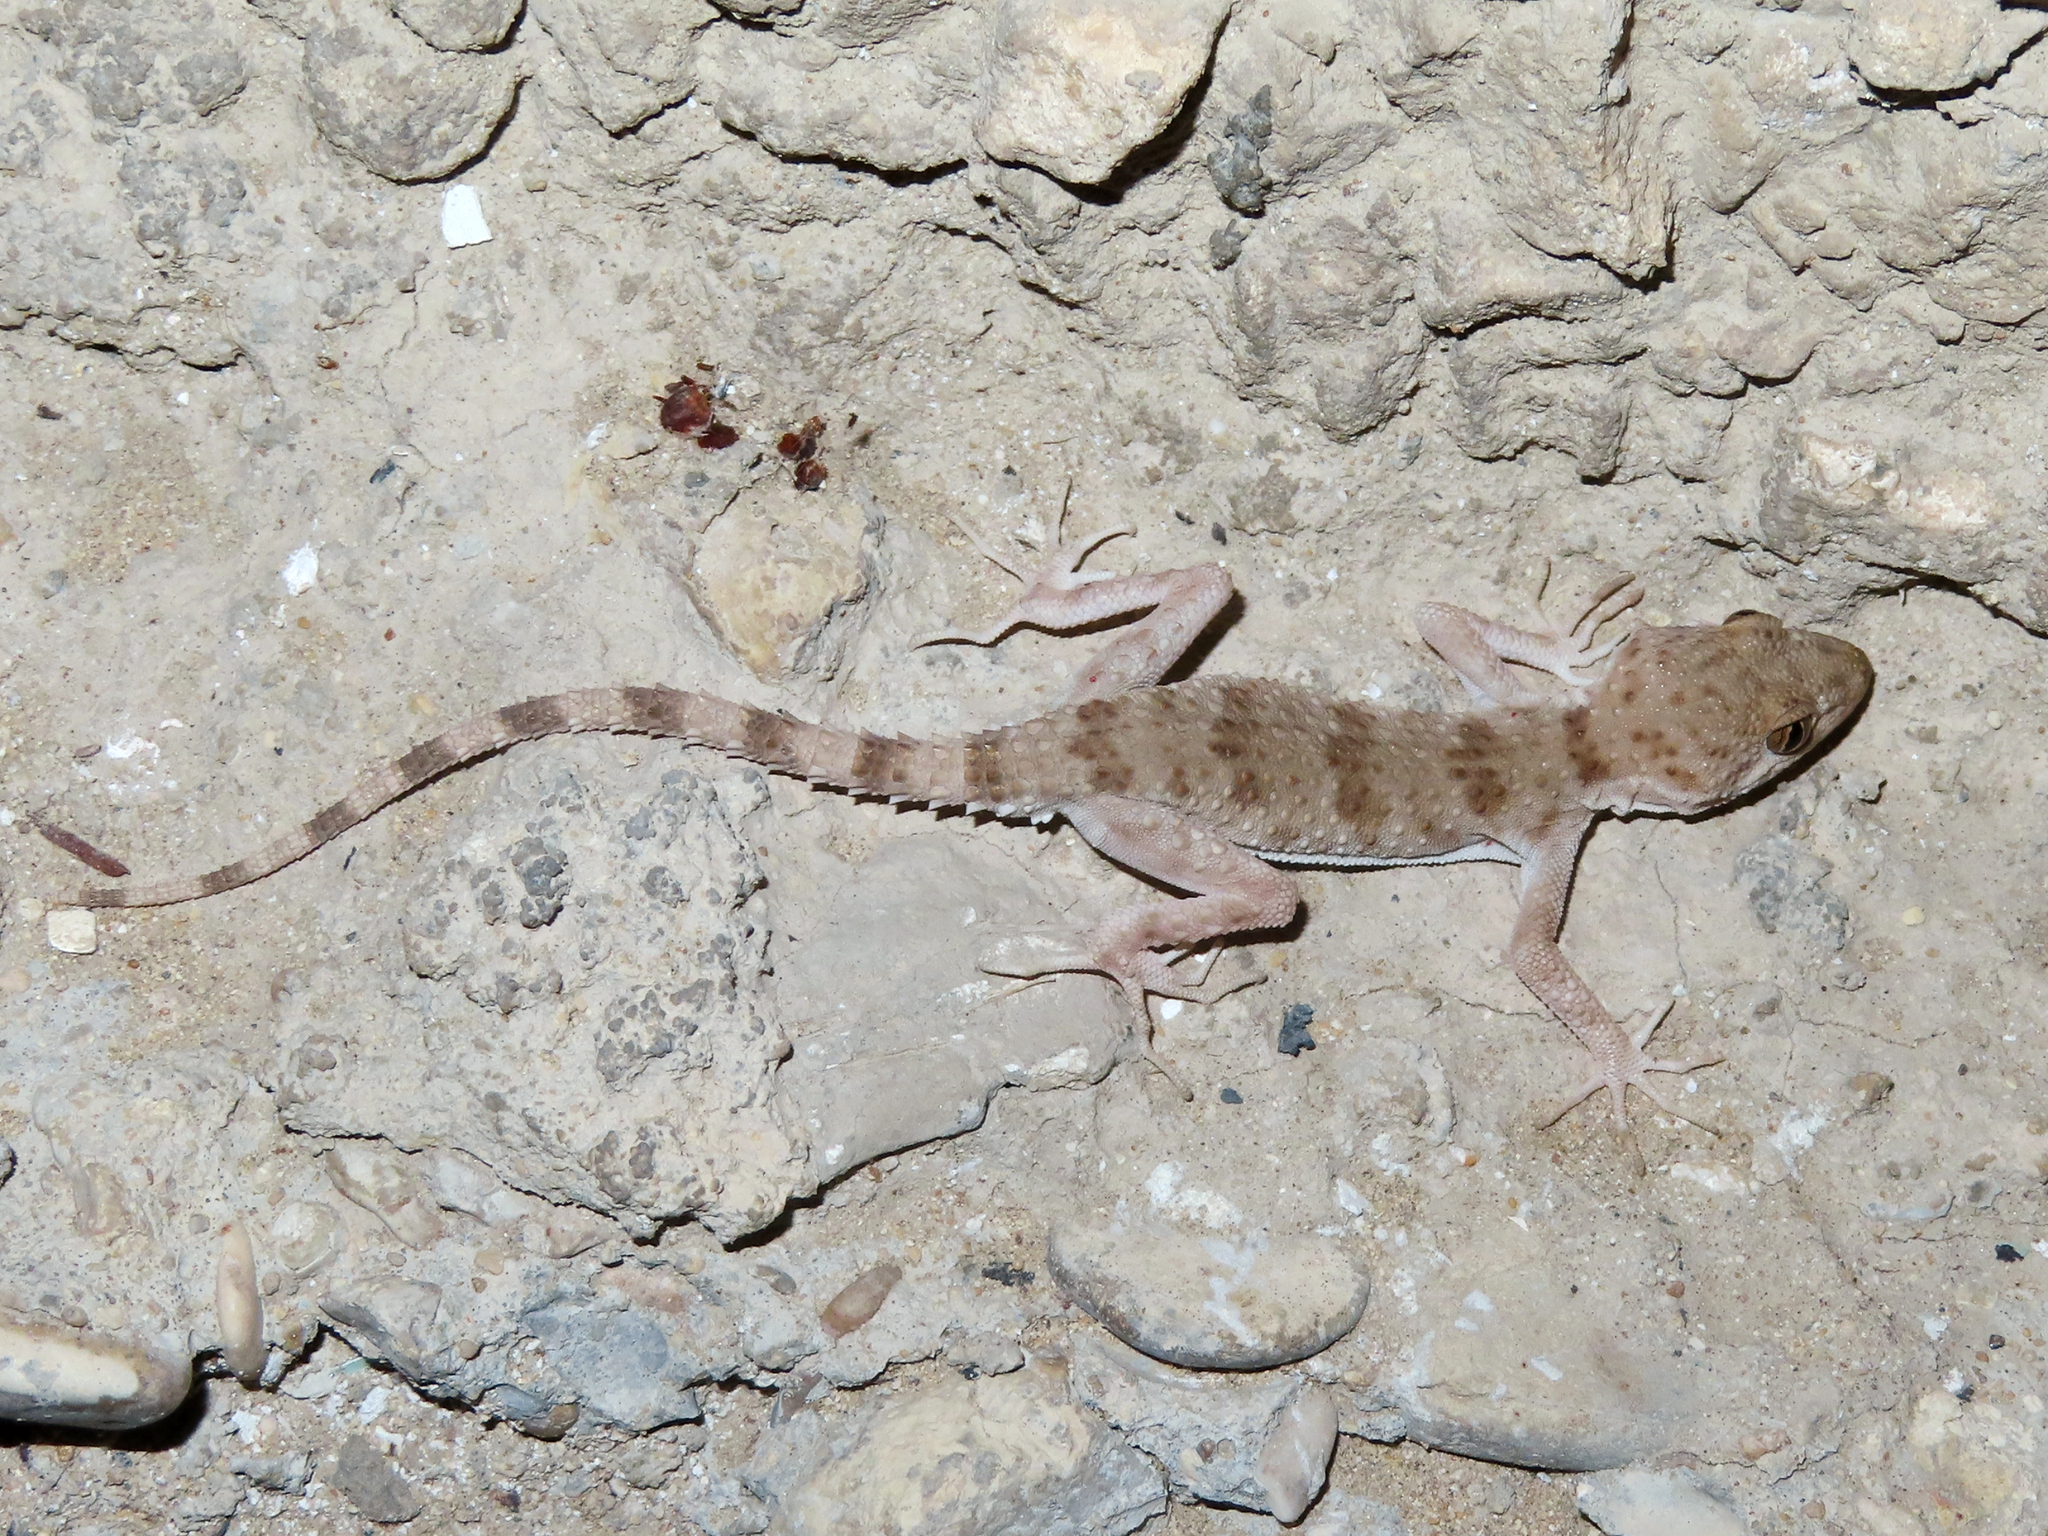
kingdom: Animalia
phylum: Chordata
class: Squamata
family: Gekkonidae
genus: Tenuidactylus
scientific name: Tenuidactylus caspius
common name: Caspian bent-toed gecko
